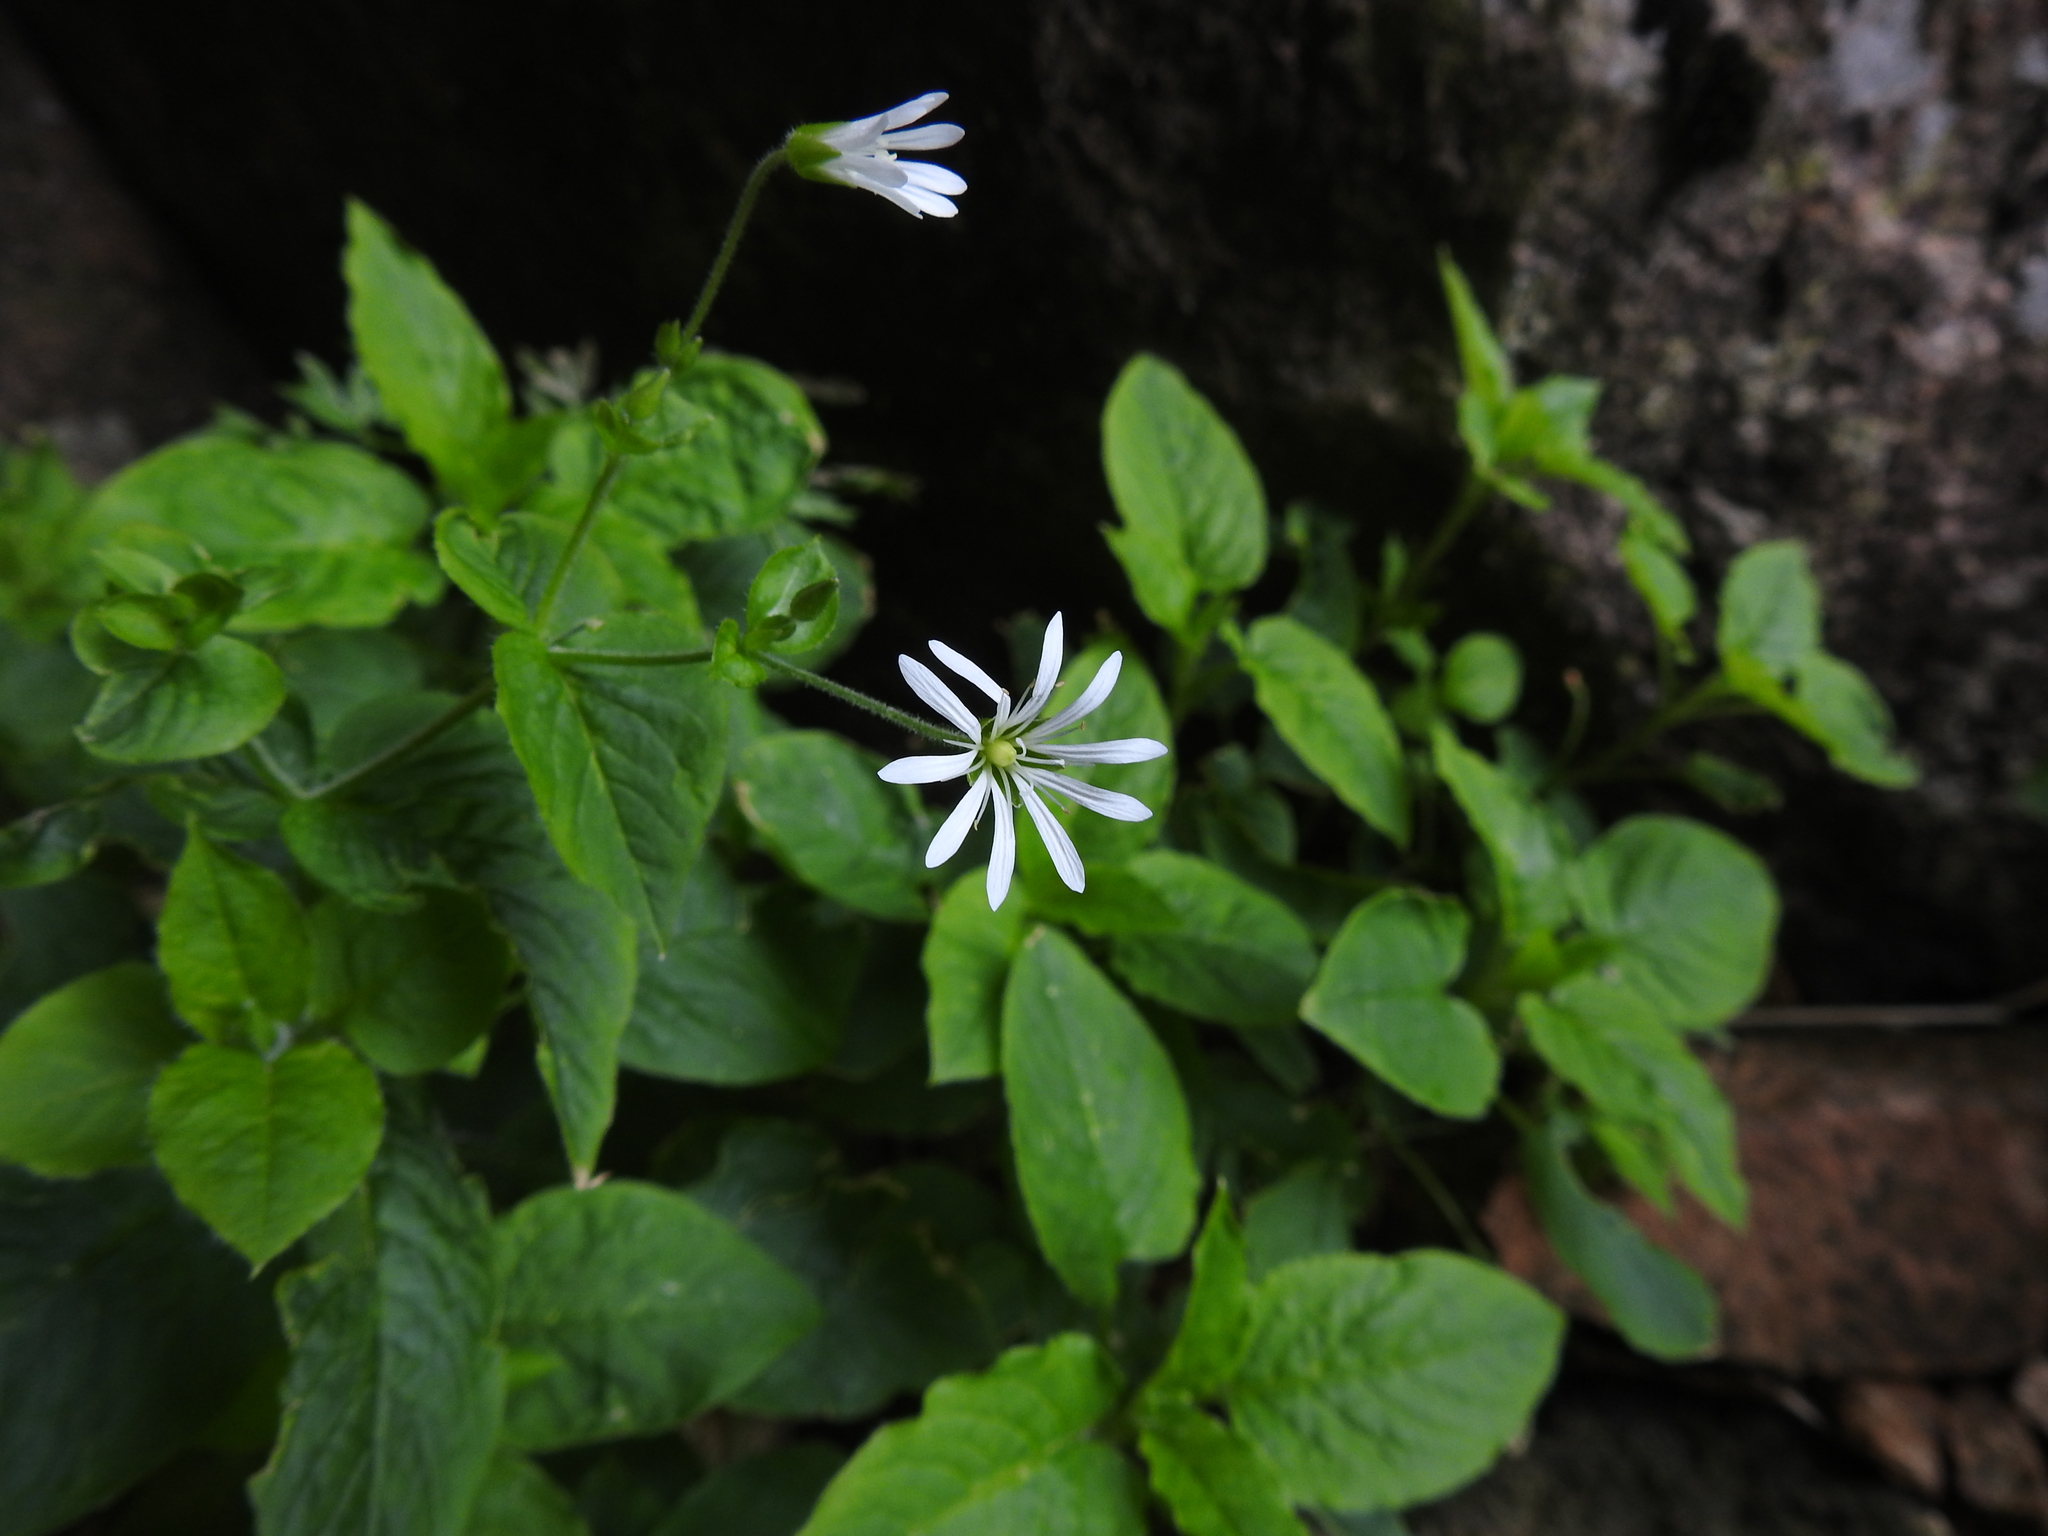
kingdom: Plantae
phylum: Tracheophyta
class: Magnoliopsida
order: Caryophyllales
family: Caryophyllaceae
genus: Stellaria
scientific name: Stellaria nemorum
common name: Wood stitchwort
